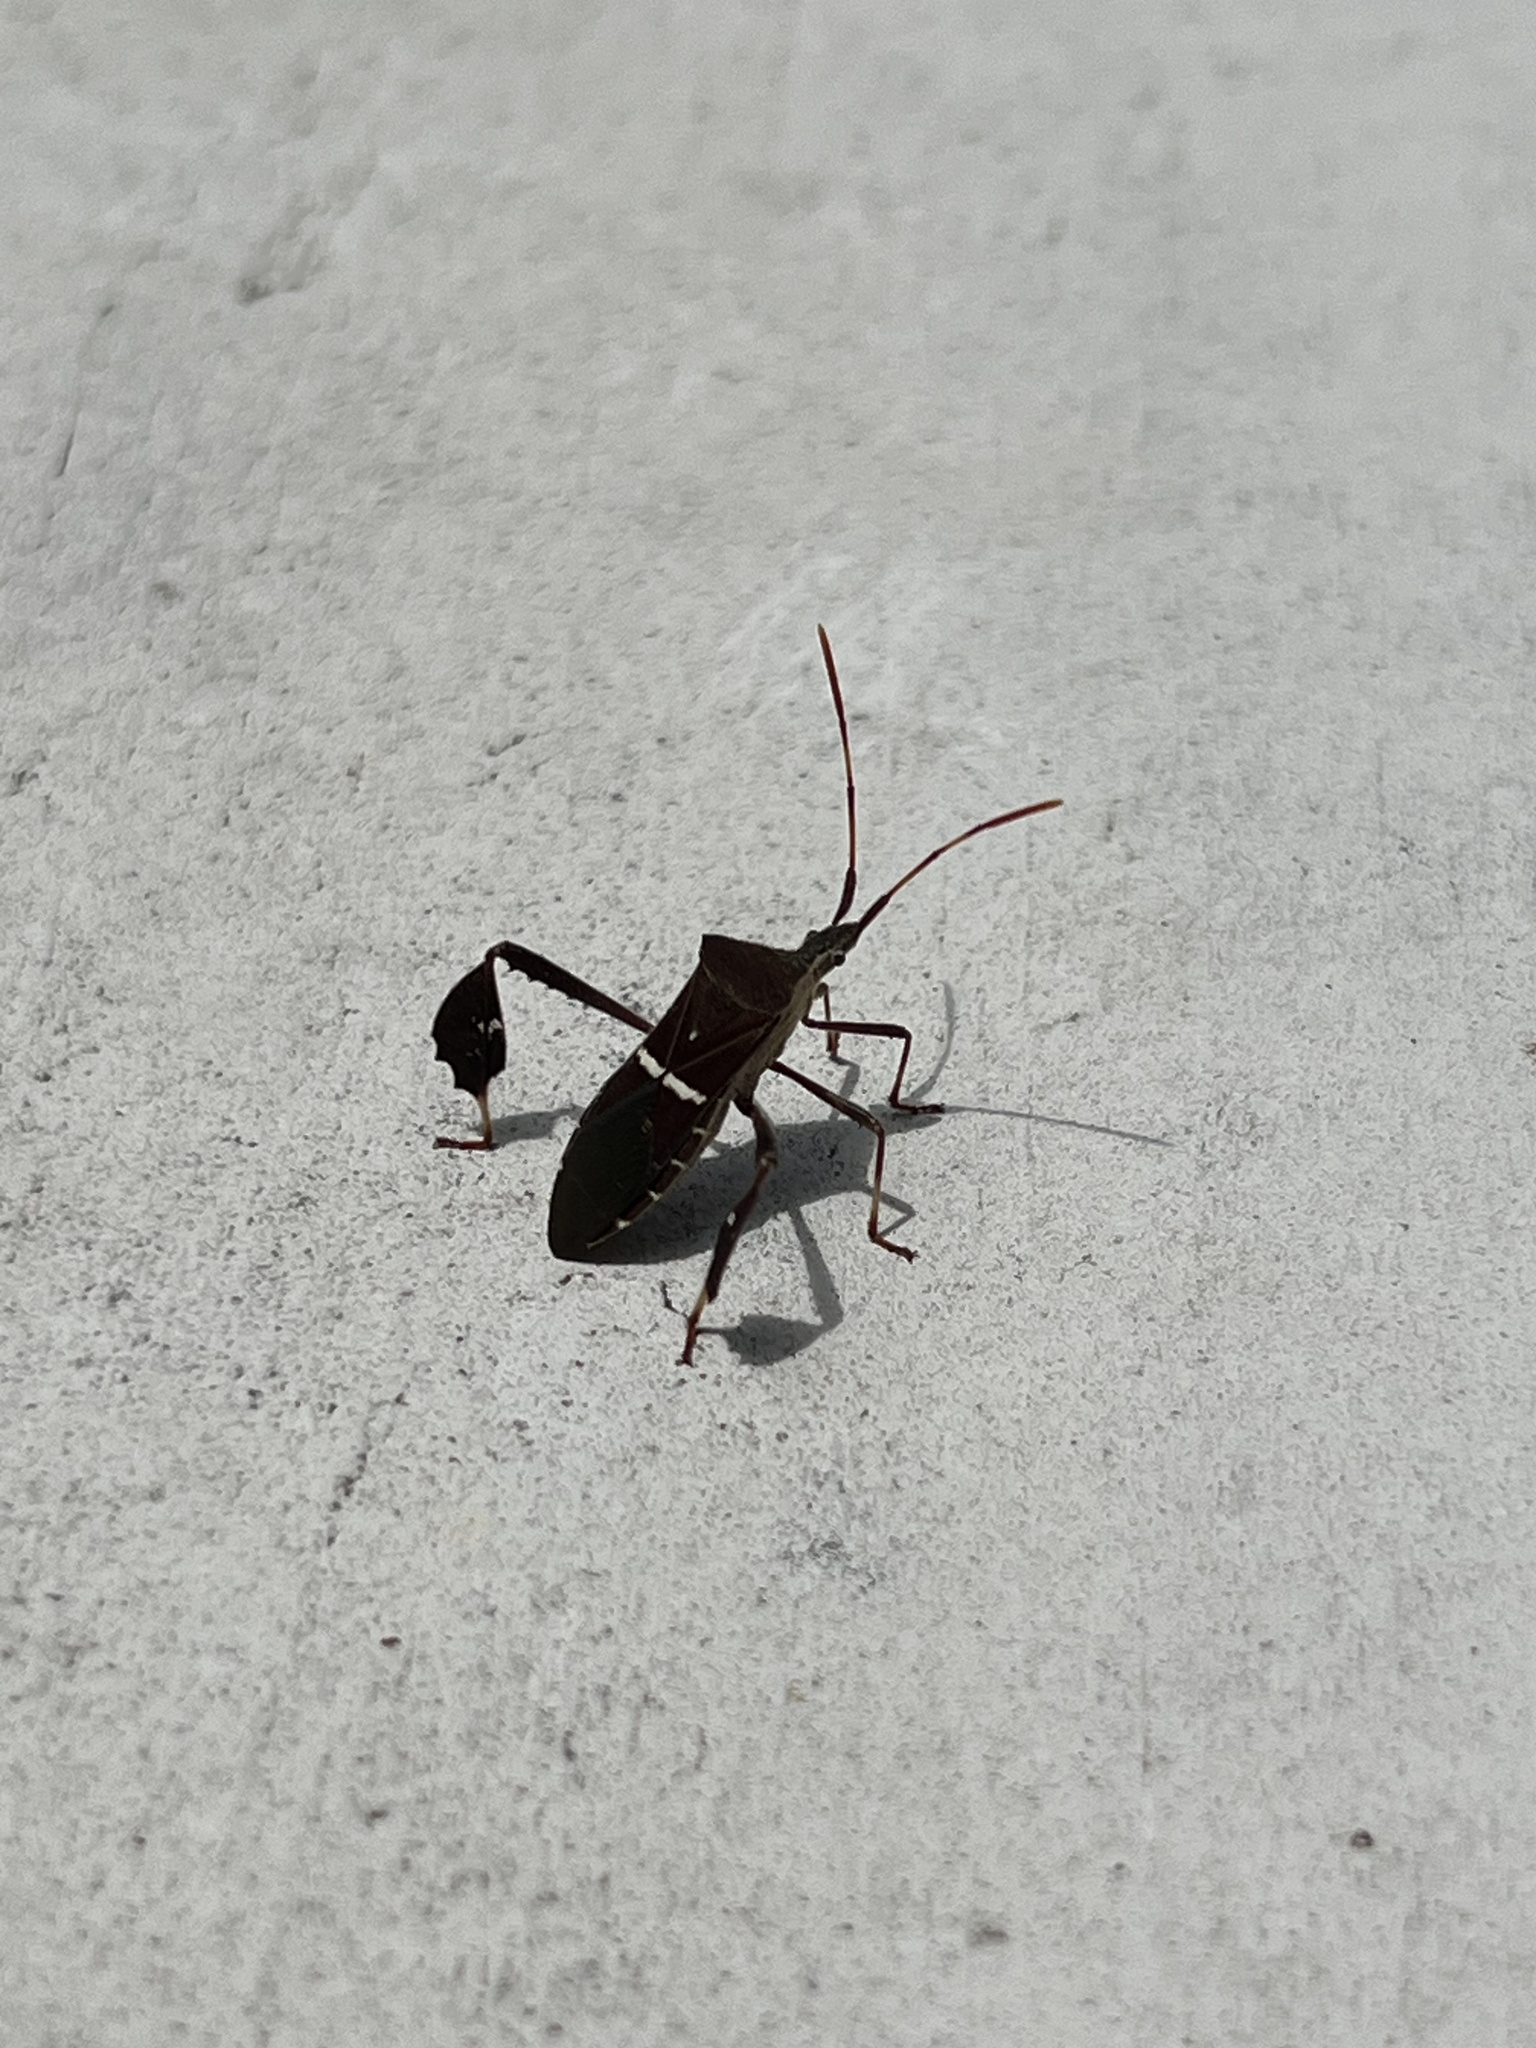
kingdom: Animalia
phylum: Arthropoda
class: Insecta
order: Hemiptera
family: Coreidae
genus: Leptoglossus
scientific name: Leptoglossus phyllopus
